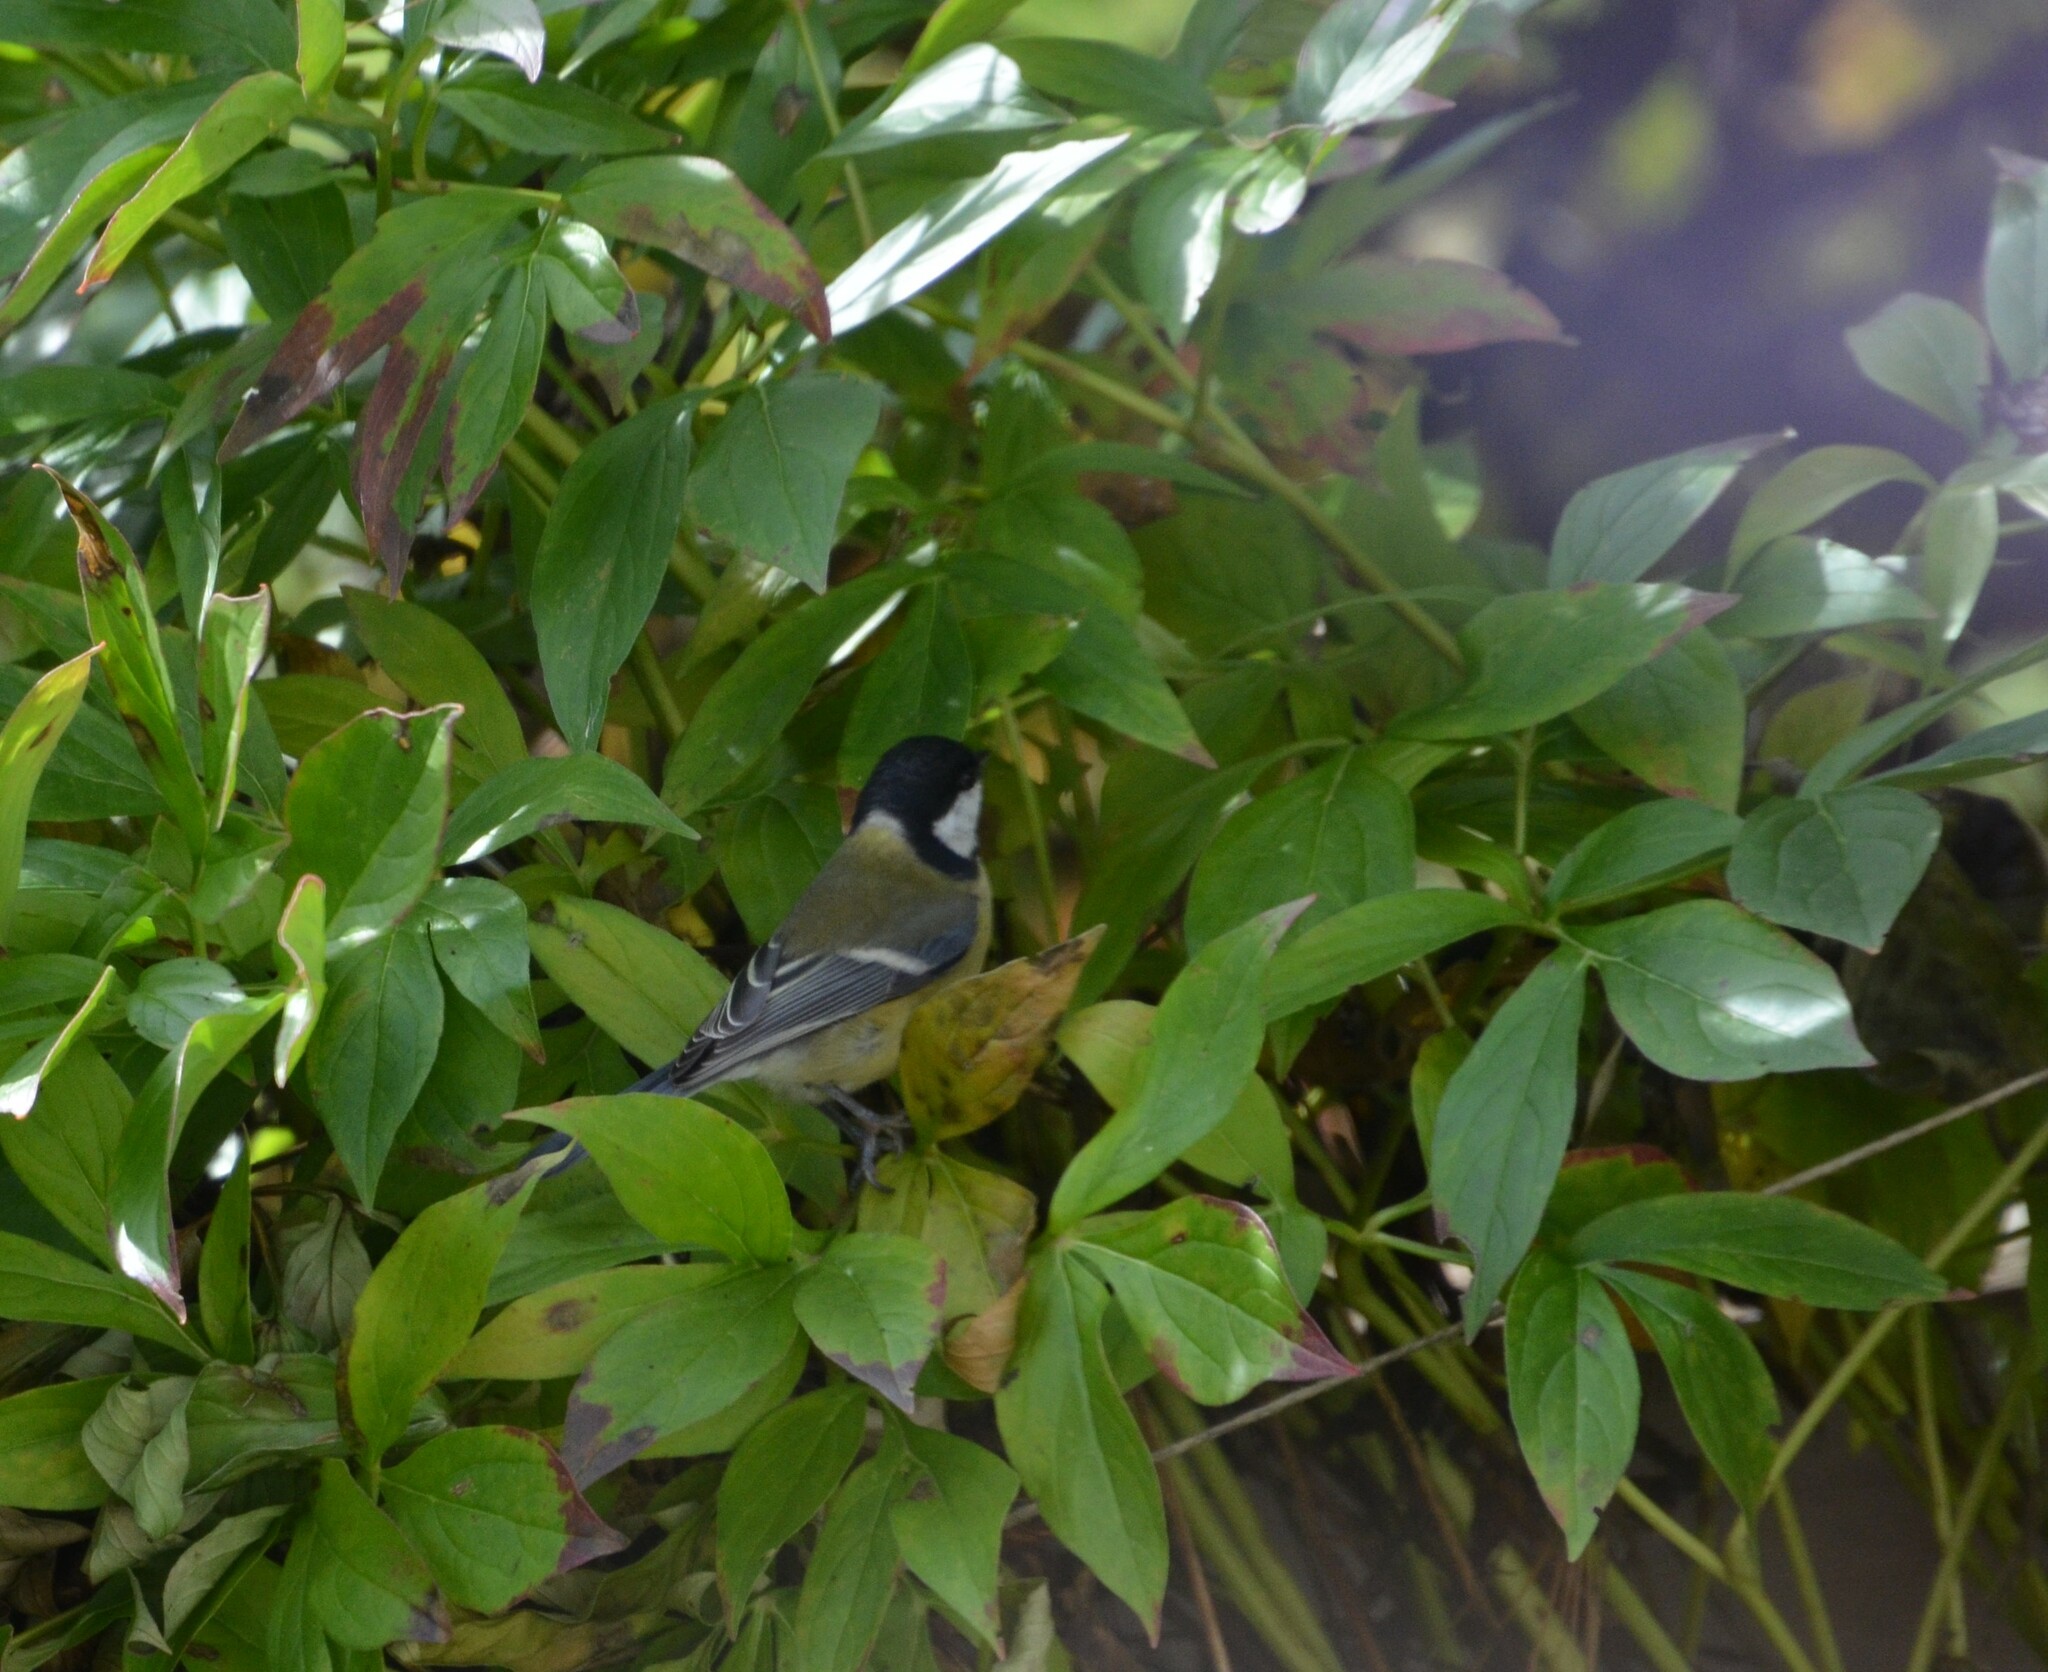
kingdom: Animalia
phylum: Chordata
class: Aves
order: Passeriformes
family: Paridae
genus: Parus
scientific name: Parus major
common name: Great tit
